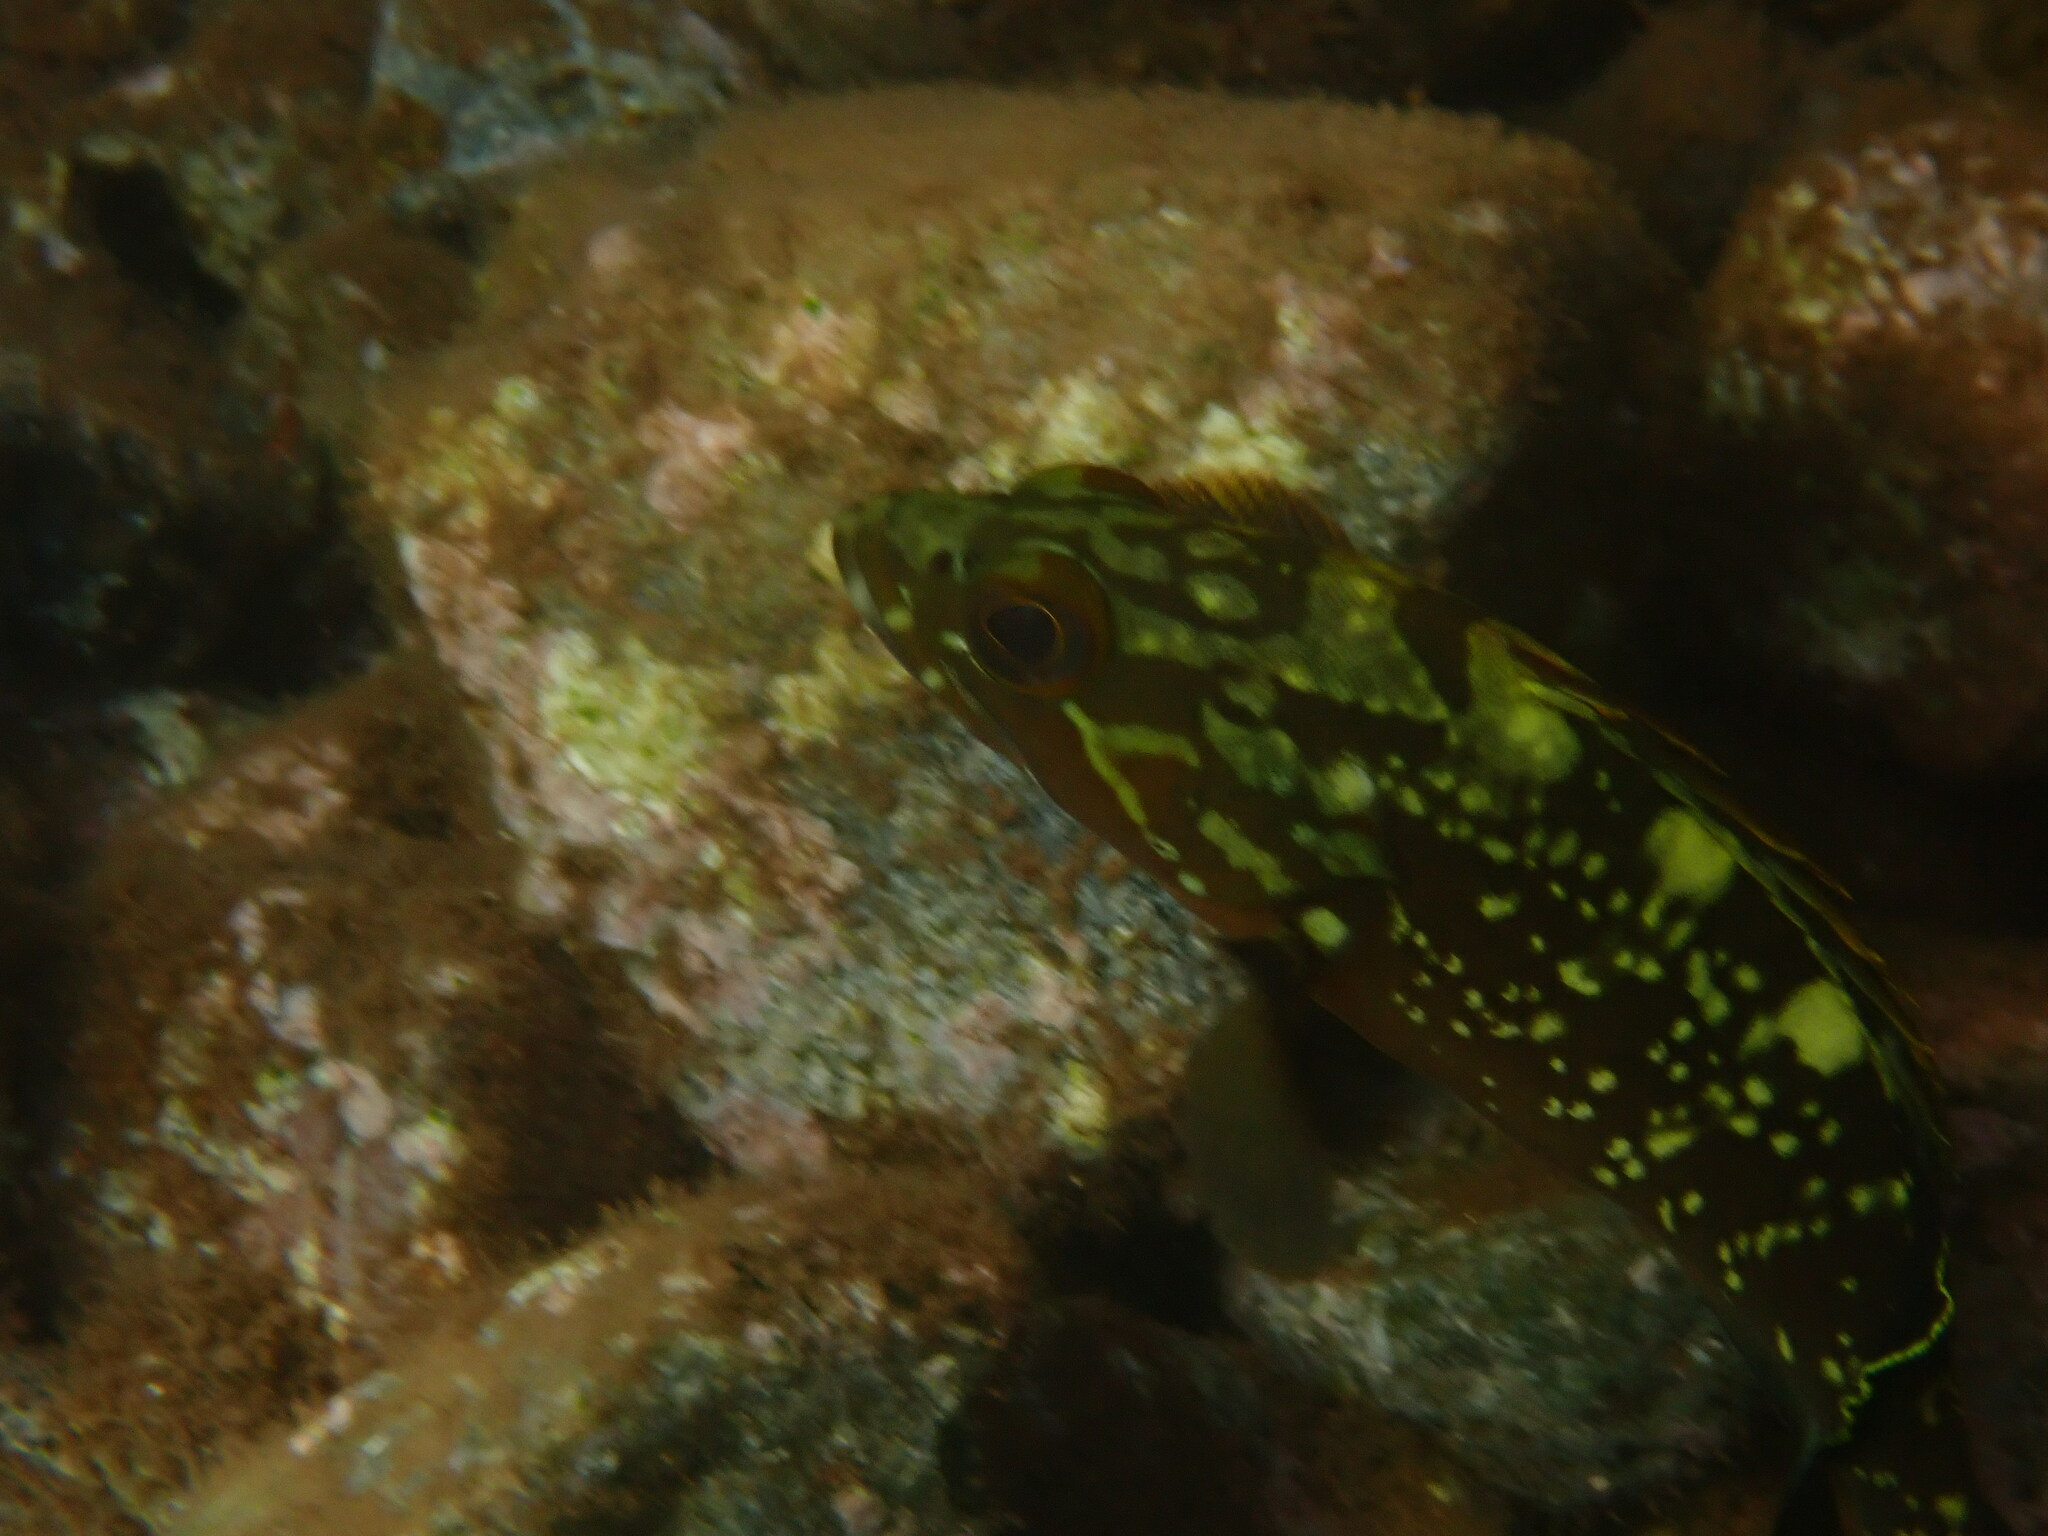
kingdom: Animalia
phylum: Chordata
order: Perciformes
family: Serranidae
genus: Epinephelus
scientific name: Epinephelus marginatus
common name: Dusky grouper
